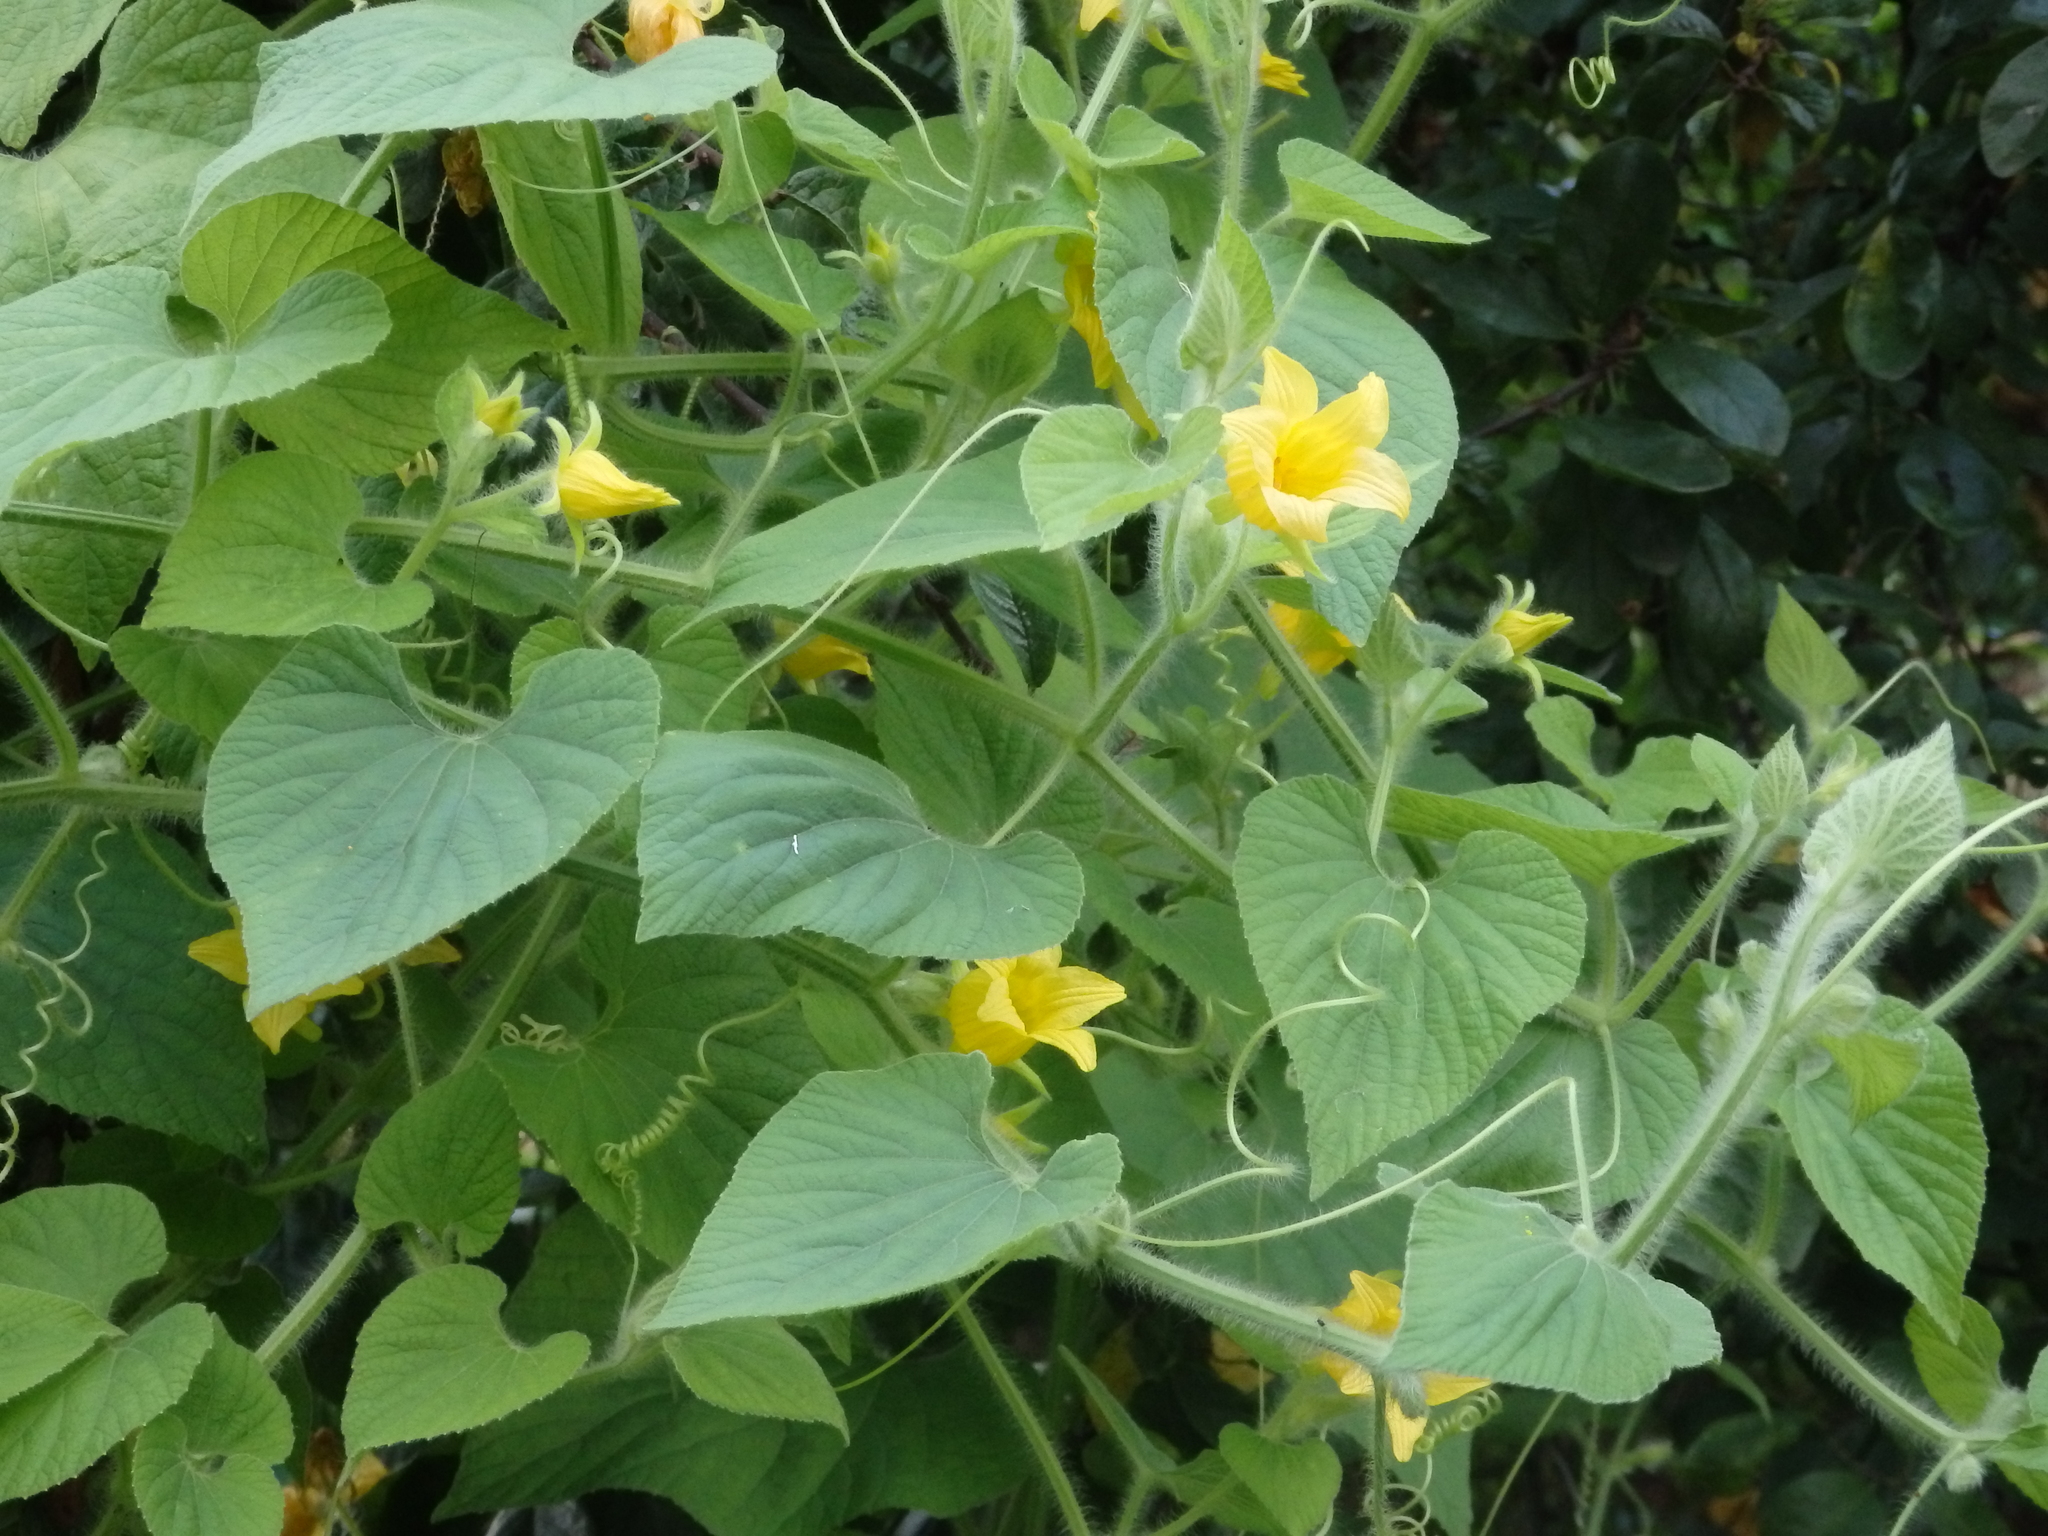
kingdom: Plantae
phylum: Tracheophyta
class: Magnoliopsida
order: Cucurbitales
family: Cucurbitaceae
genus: Thladiantha
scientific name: Thladiantha dubia
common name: Manchu tubergourd
